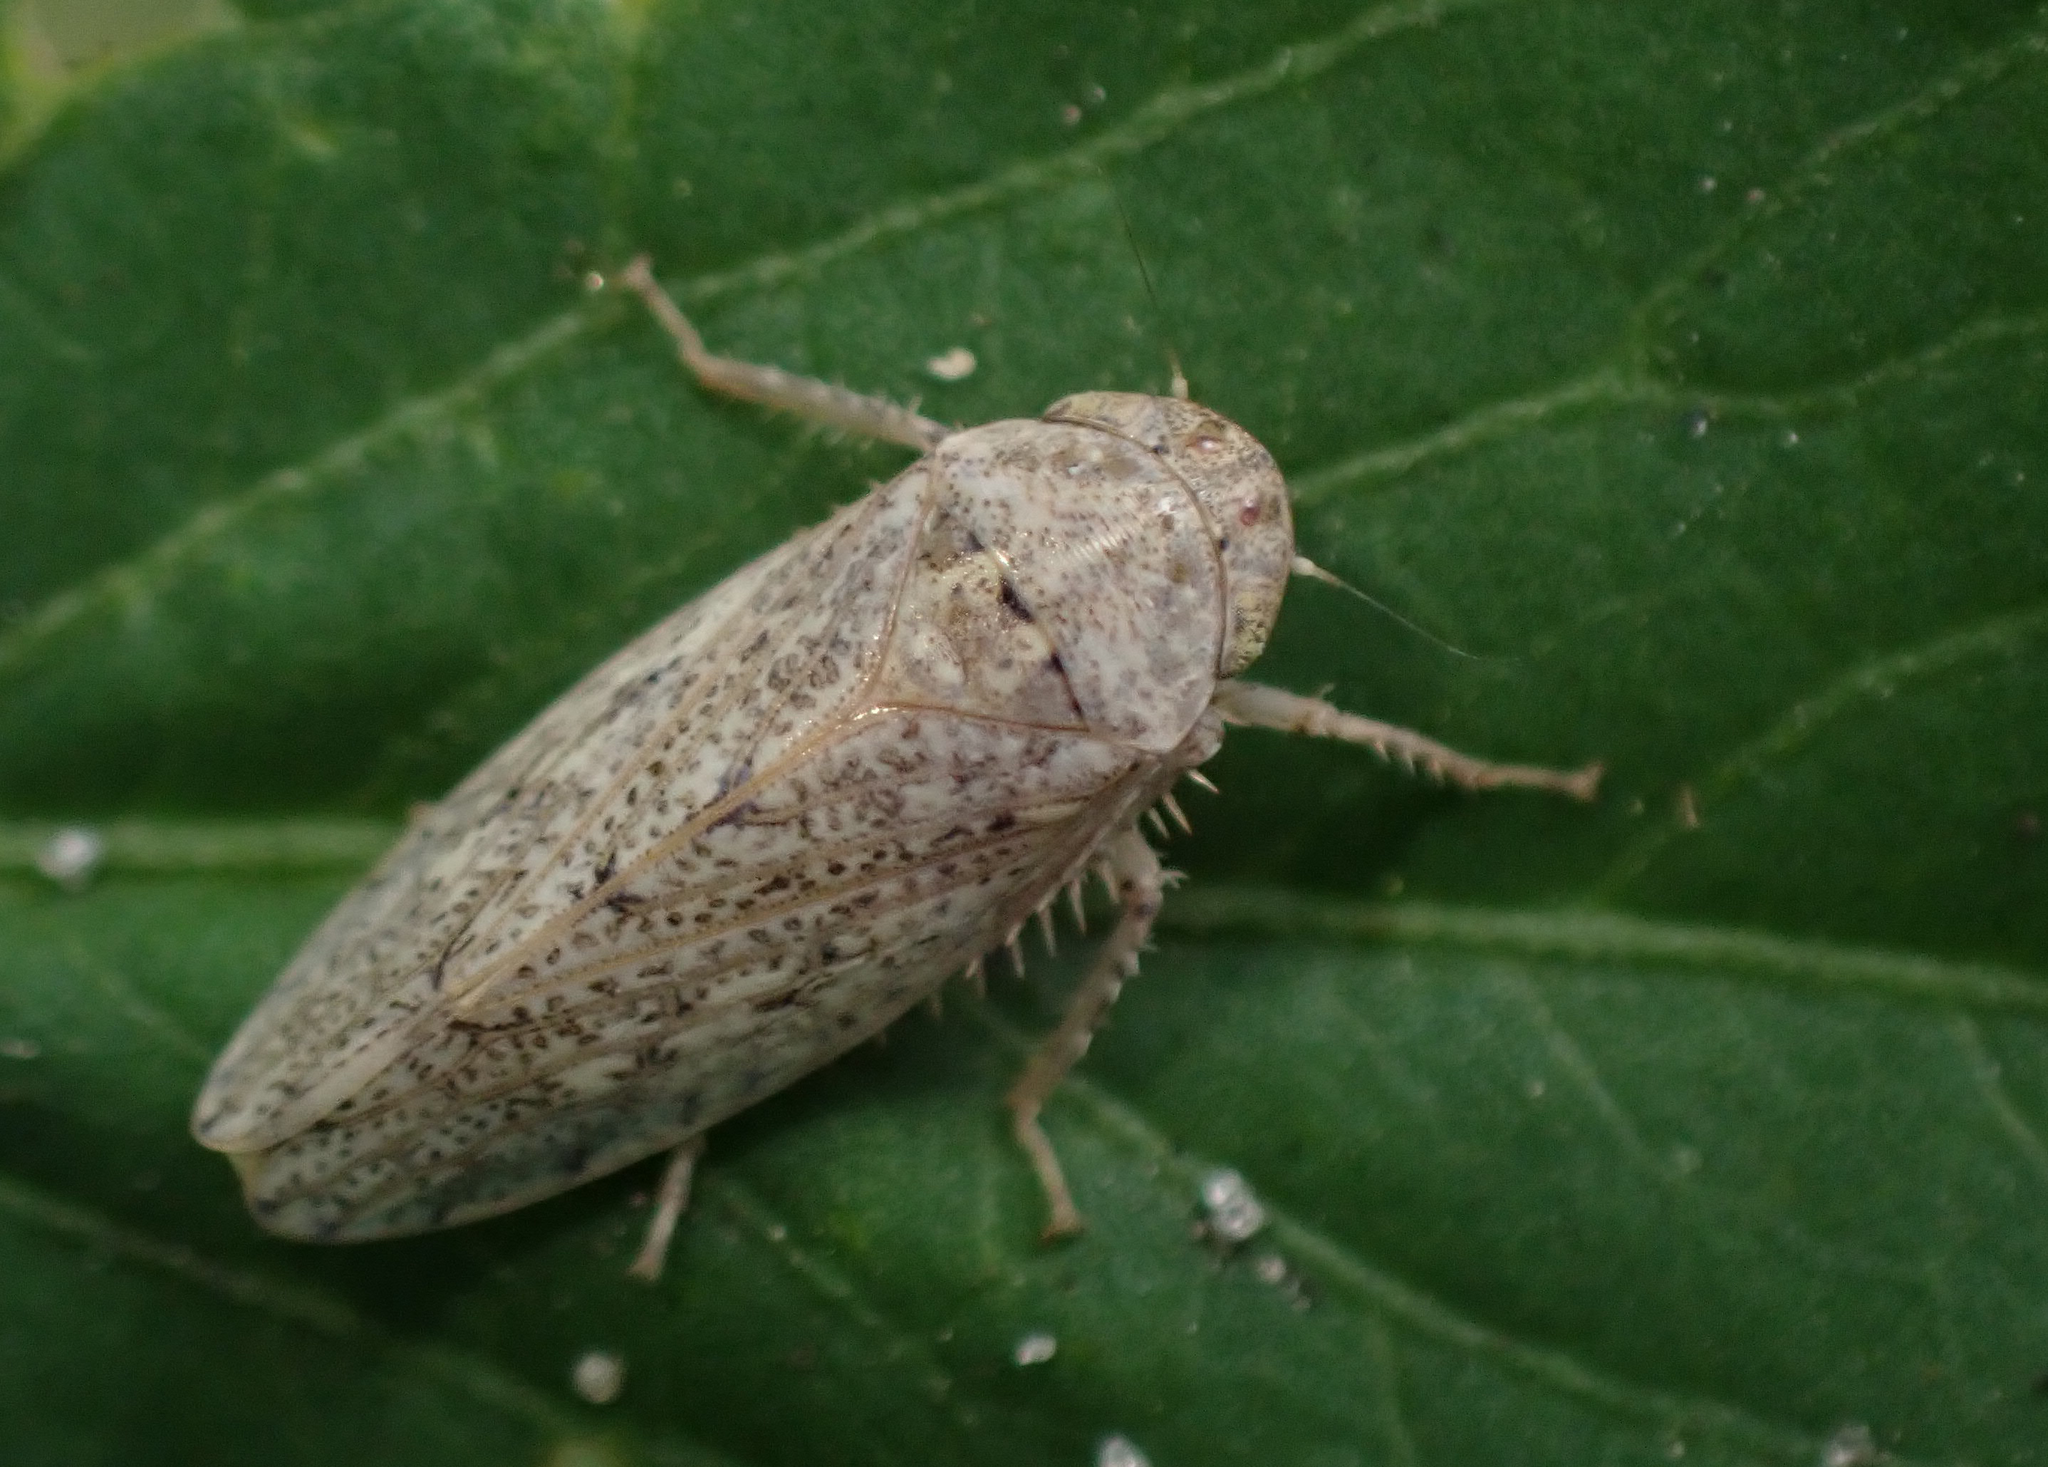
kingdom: Animalia
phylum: Arthropoda
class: Insecta
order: Hemiptera
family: Cicadellidae
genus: Curtara
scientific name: Curtara insularis
